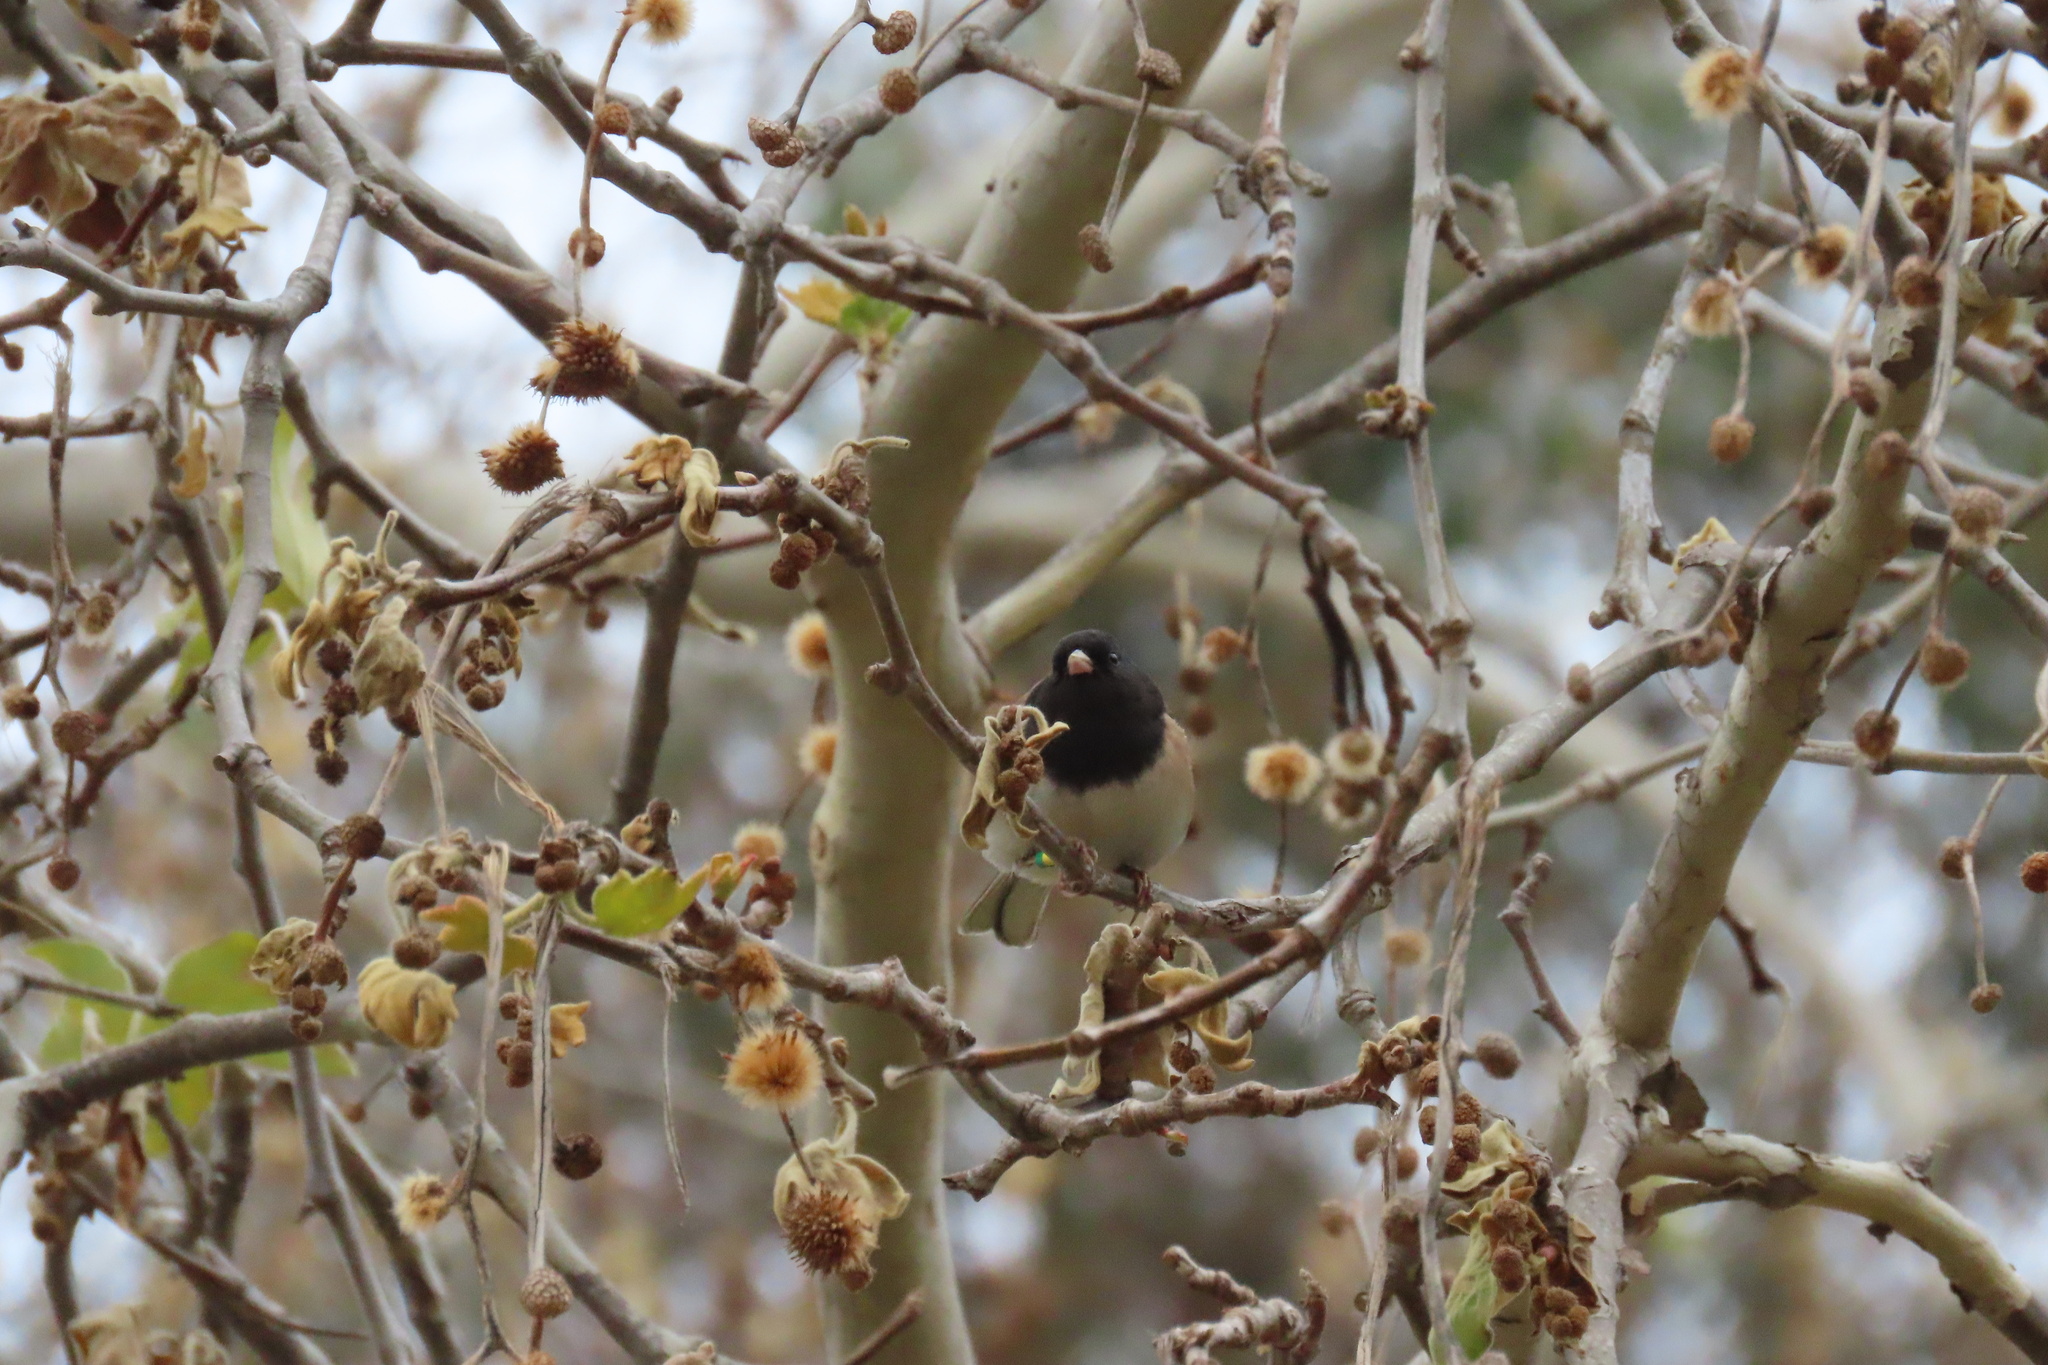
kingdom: Animalia
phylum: Chordata
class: Aves
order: Passeriformes
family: Passerellidae
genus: Junco
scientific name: Junco hyemalis
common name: Dark-eyed junco
